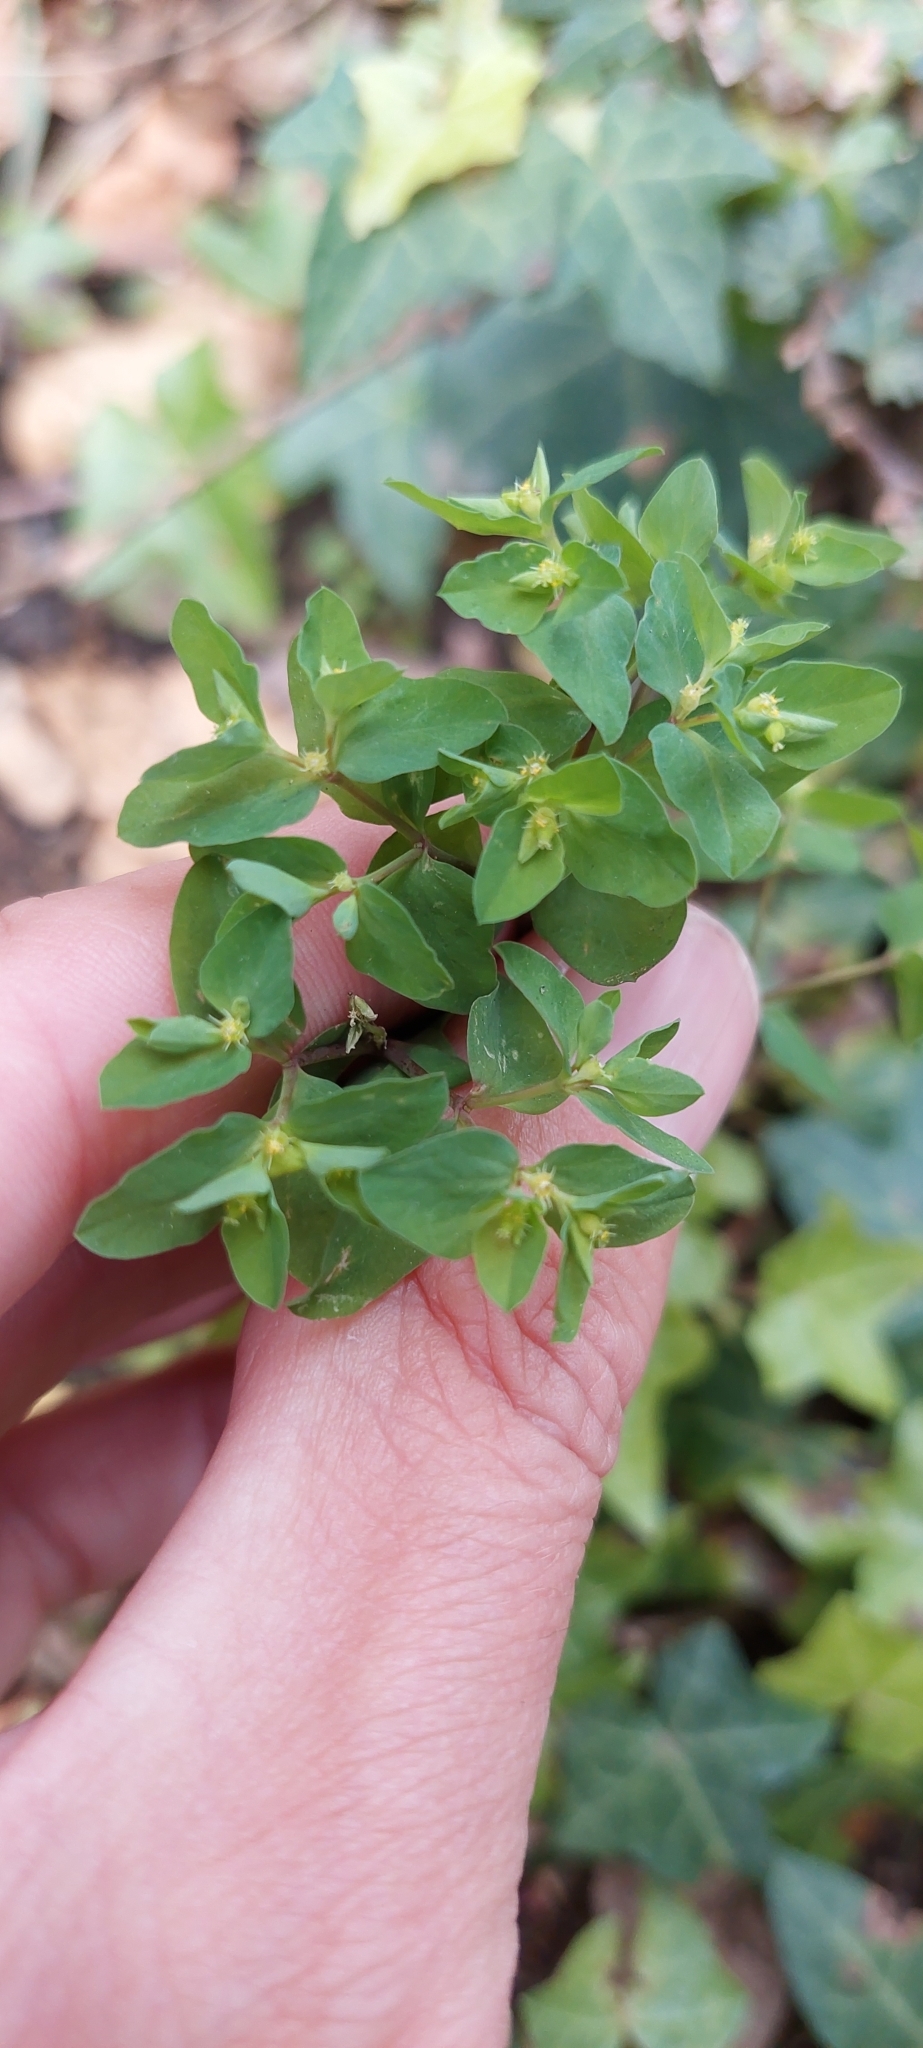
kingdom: Plantae
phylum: Tracheophyta
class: Magnoliopsida
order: Malpighiales
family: Euphorbiaceae
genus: Euphorbia
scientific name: Euphorbia peplus
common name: Petty spurge
